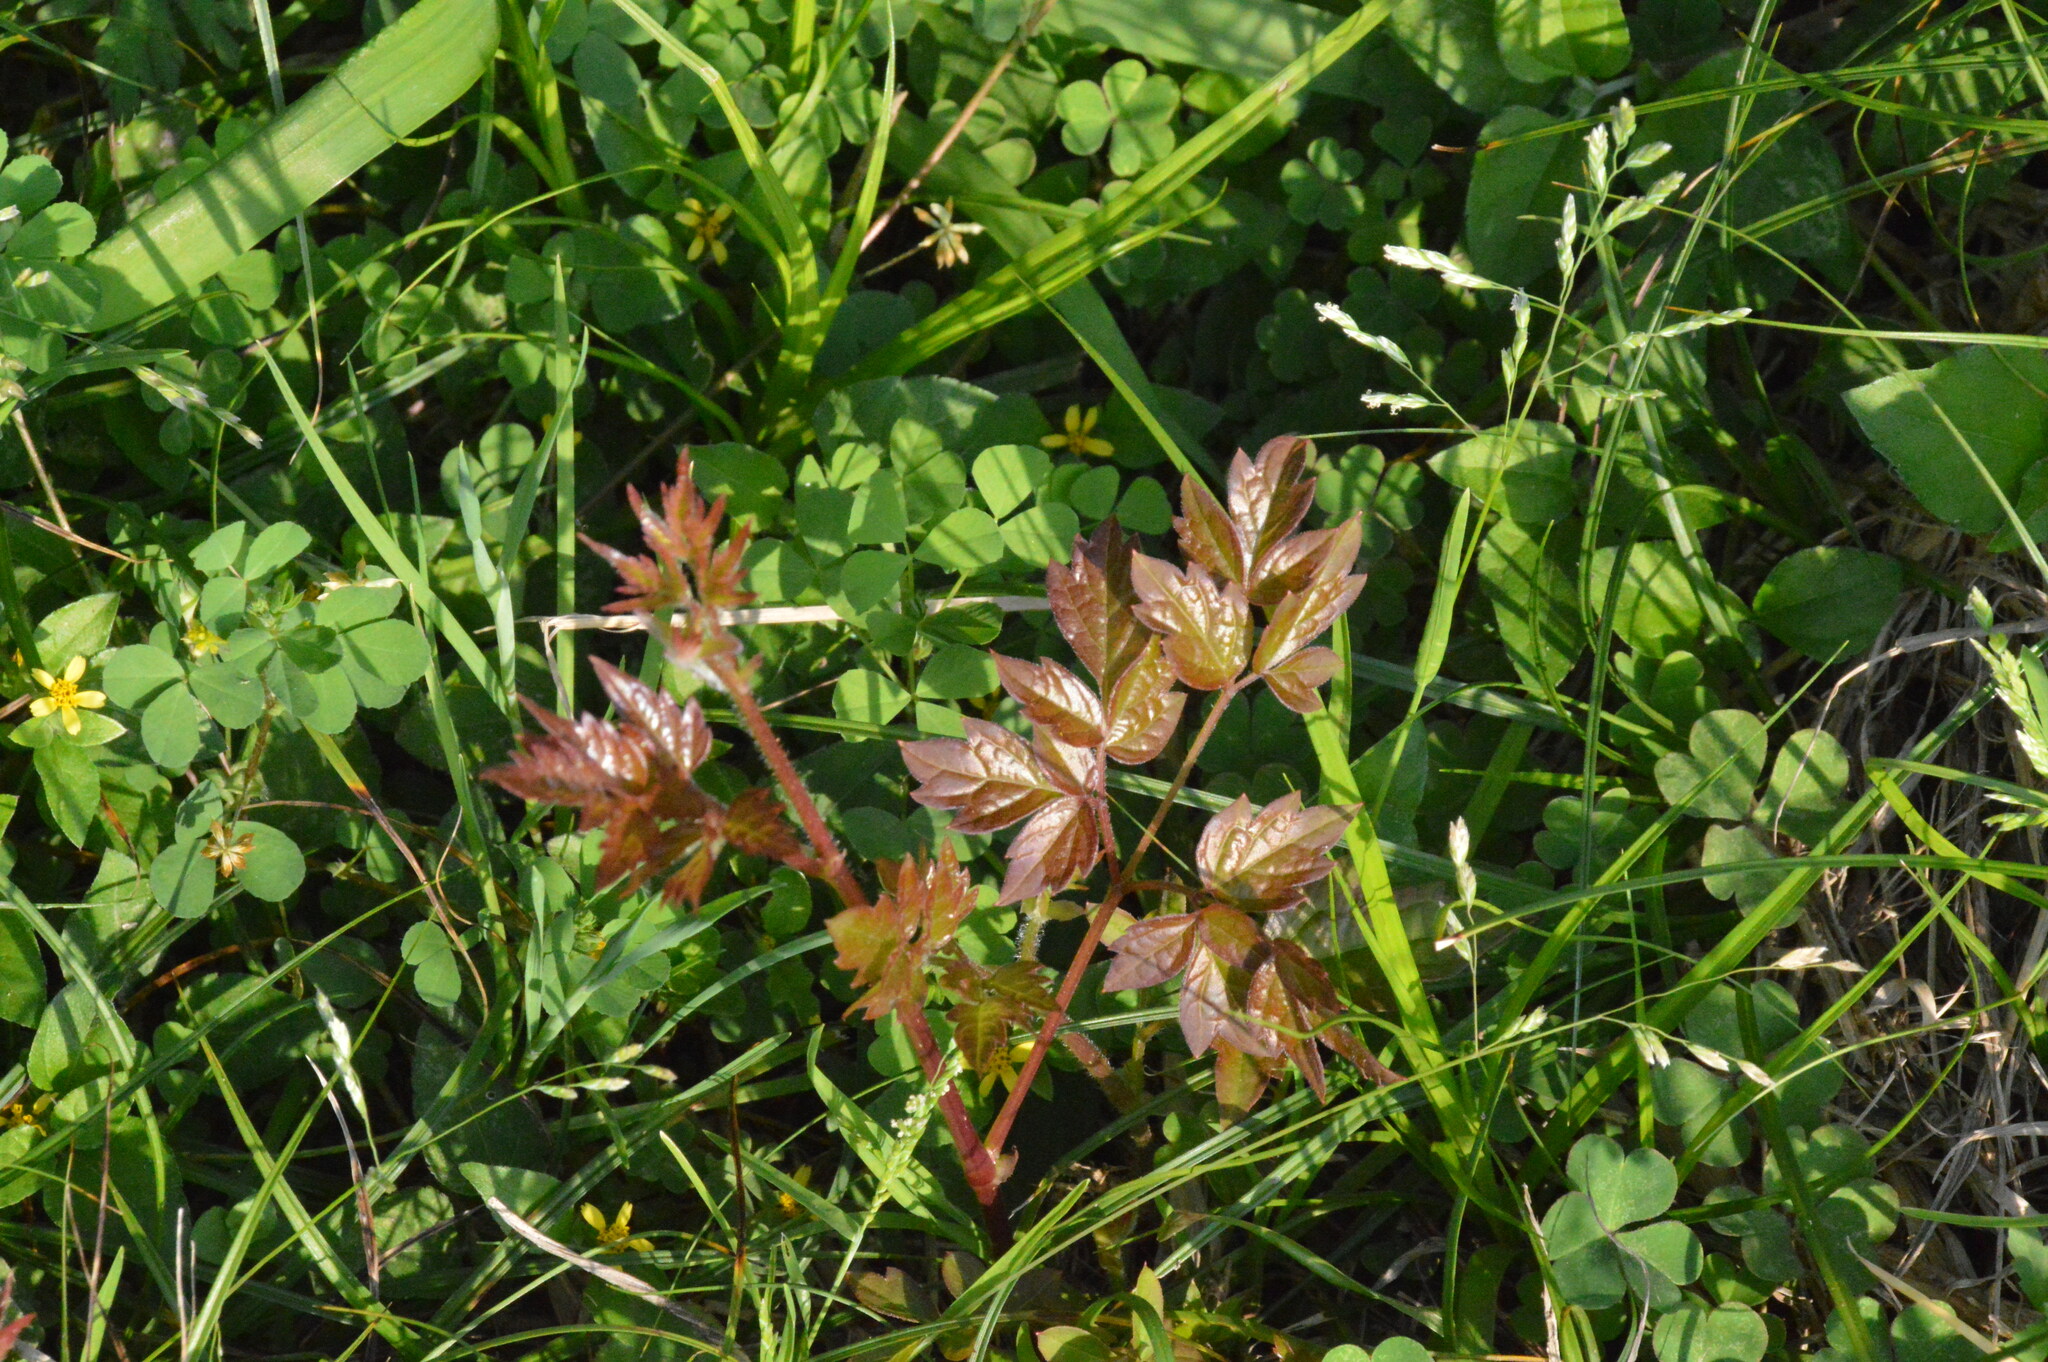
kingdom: Plantae
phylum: Tracheophyta
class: Magnoliopsida
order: Vitales
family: Vitaceae
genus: Nekemias
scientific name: Nekemias arborea
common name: Peppervine
